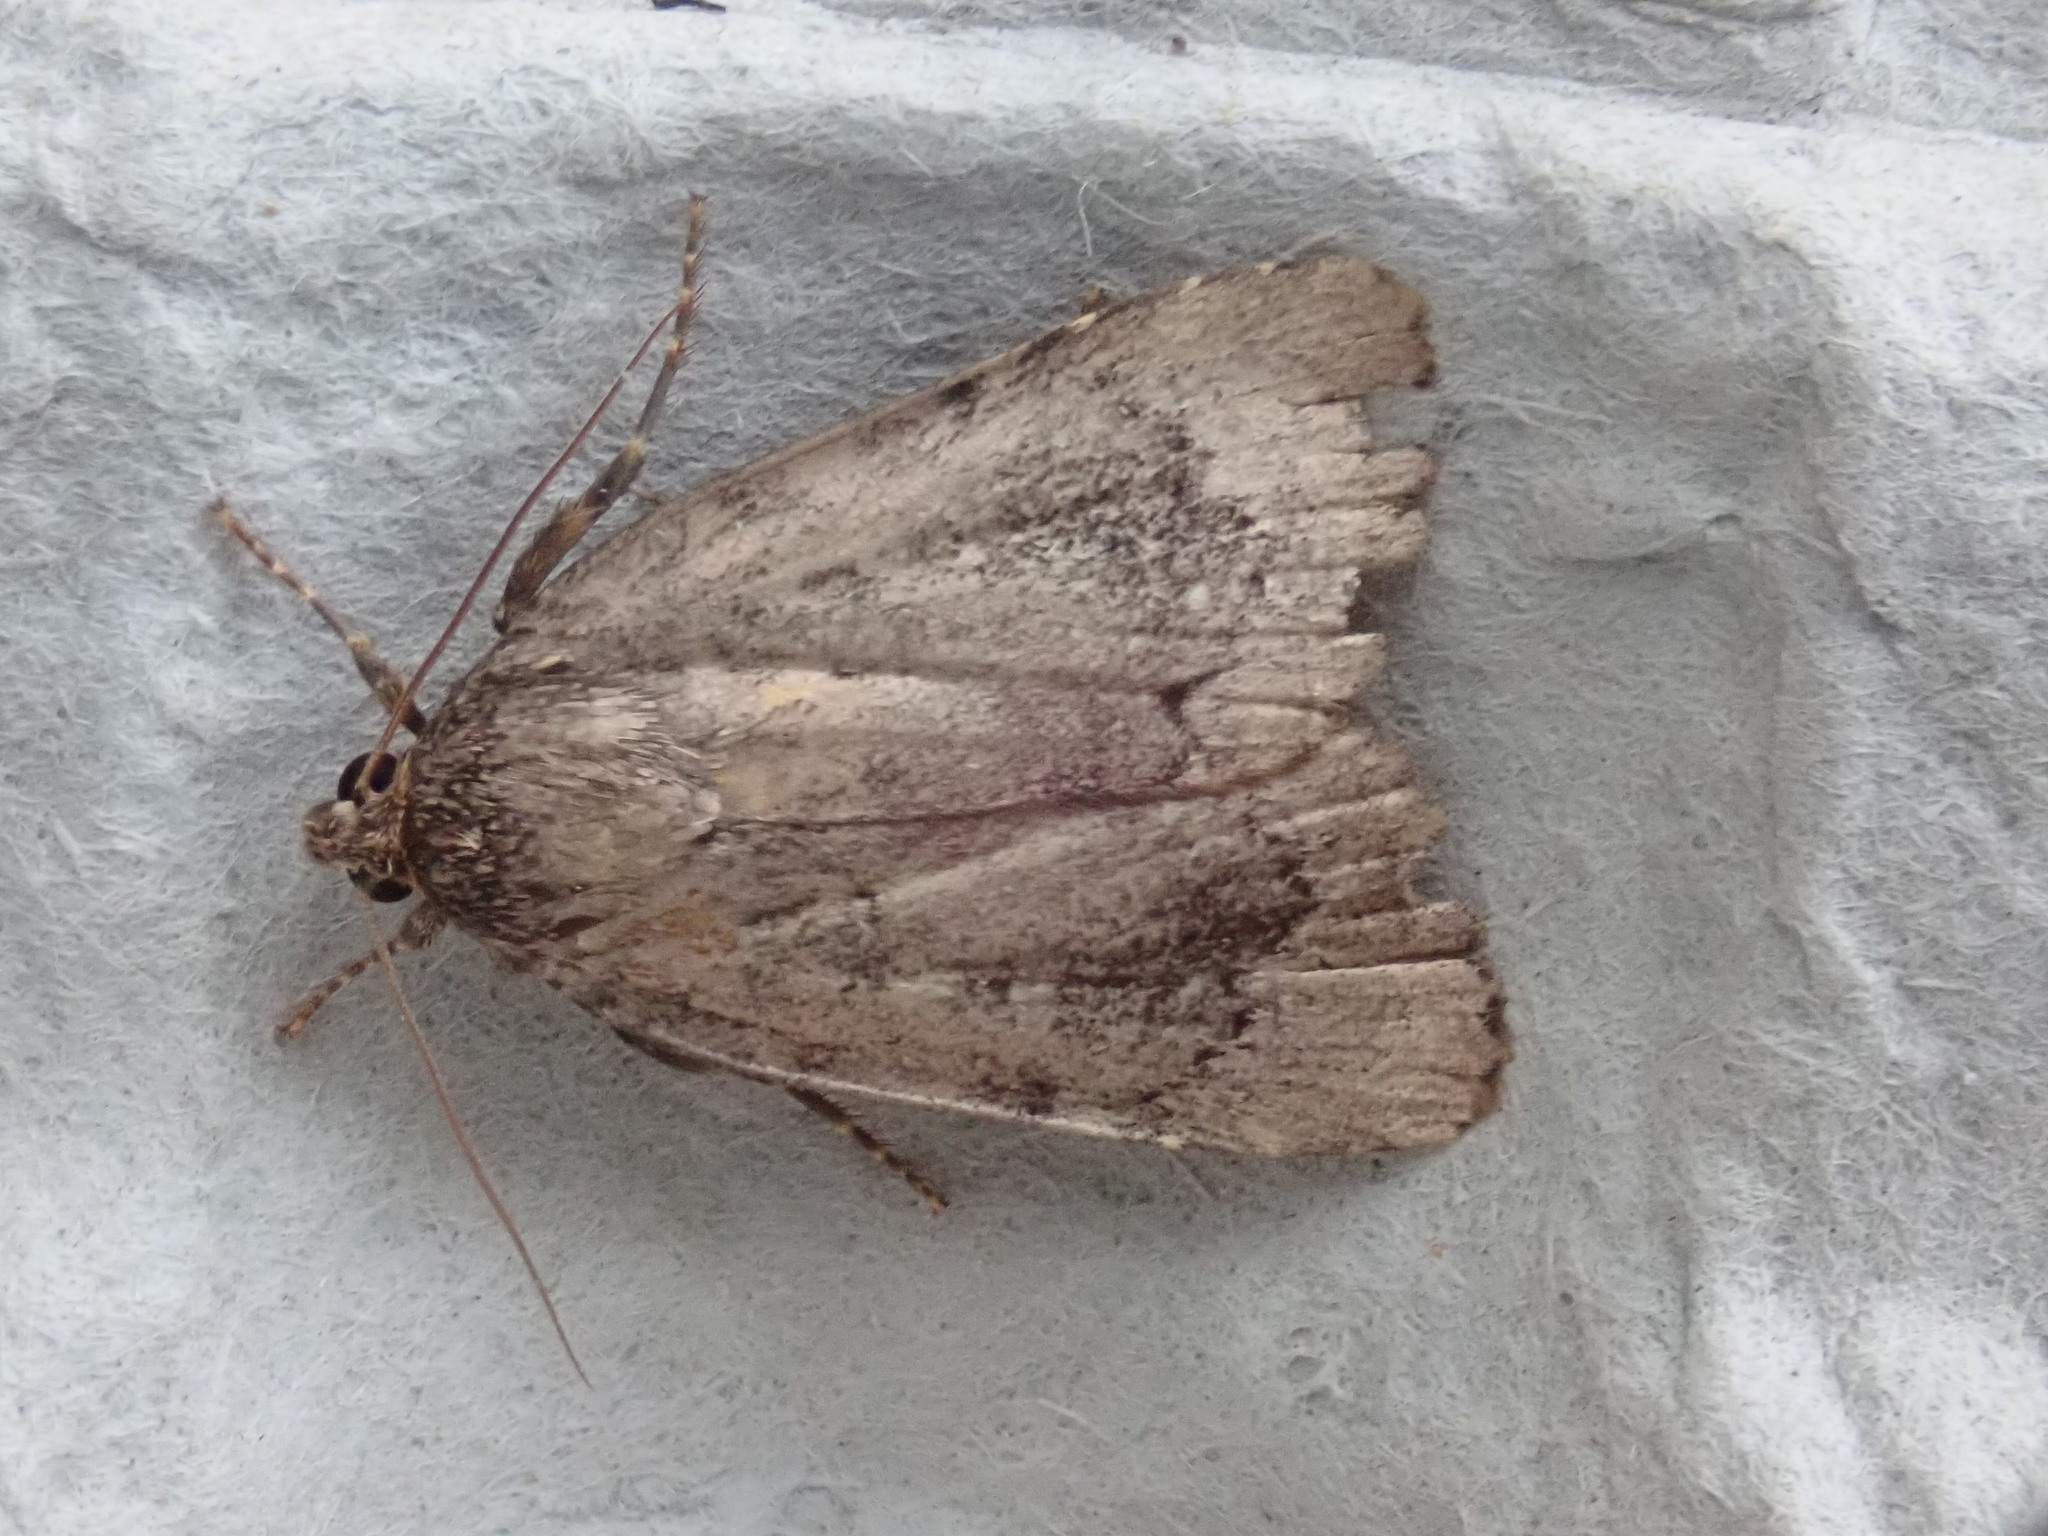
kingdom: Animalia
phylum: Arthropoda
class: Insecta
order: Lepidoptera
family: Noctuidae
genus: Amphipyra
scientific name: Amphipyra pyramidoides
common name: American copper underwing
